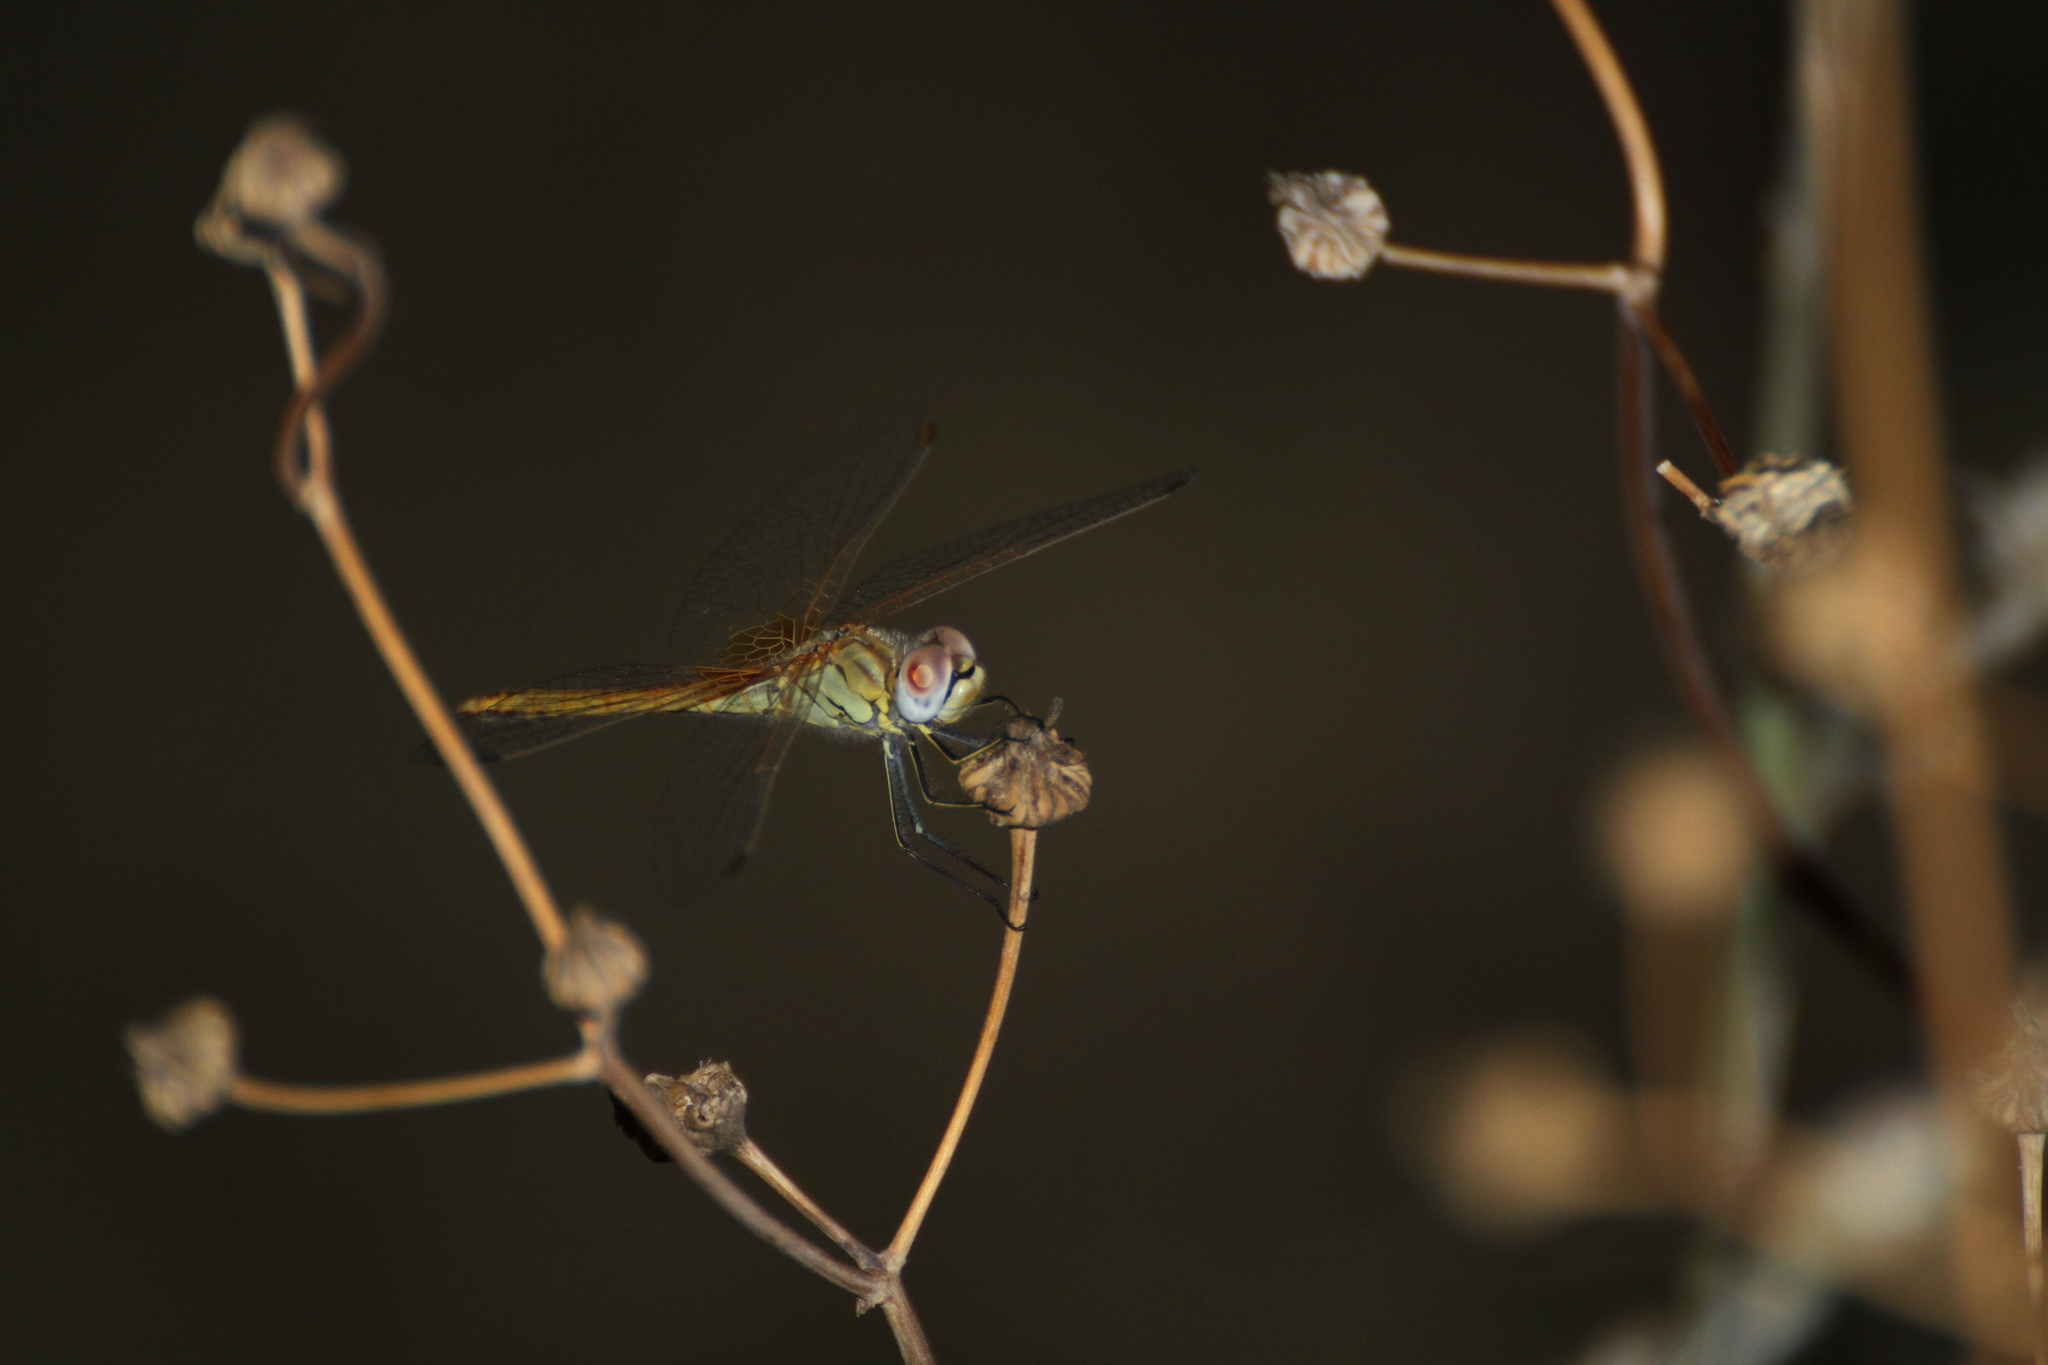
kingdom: Animalia
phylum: Arthropoda
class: Insecta
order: Odonata
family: Libellulidae
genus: Sympetrum
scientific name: Sympetrum fonscolombii
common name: Red-veined darter
